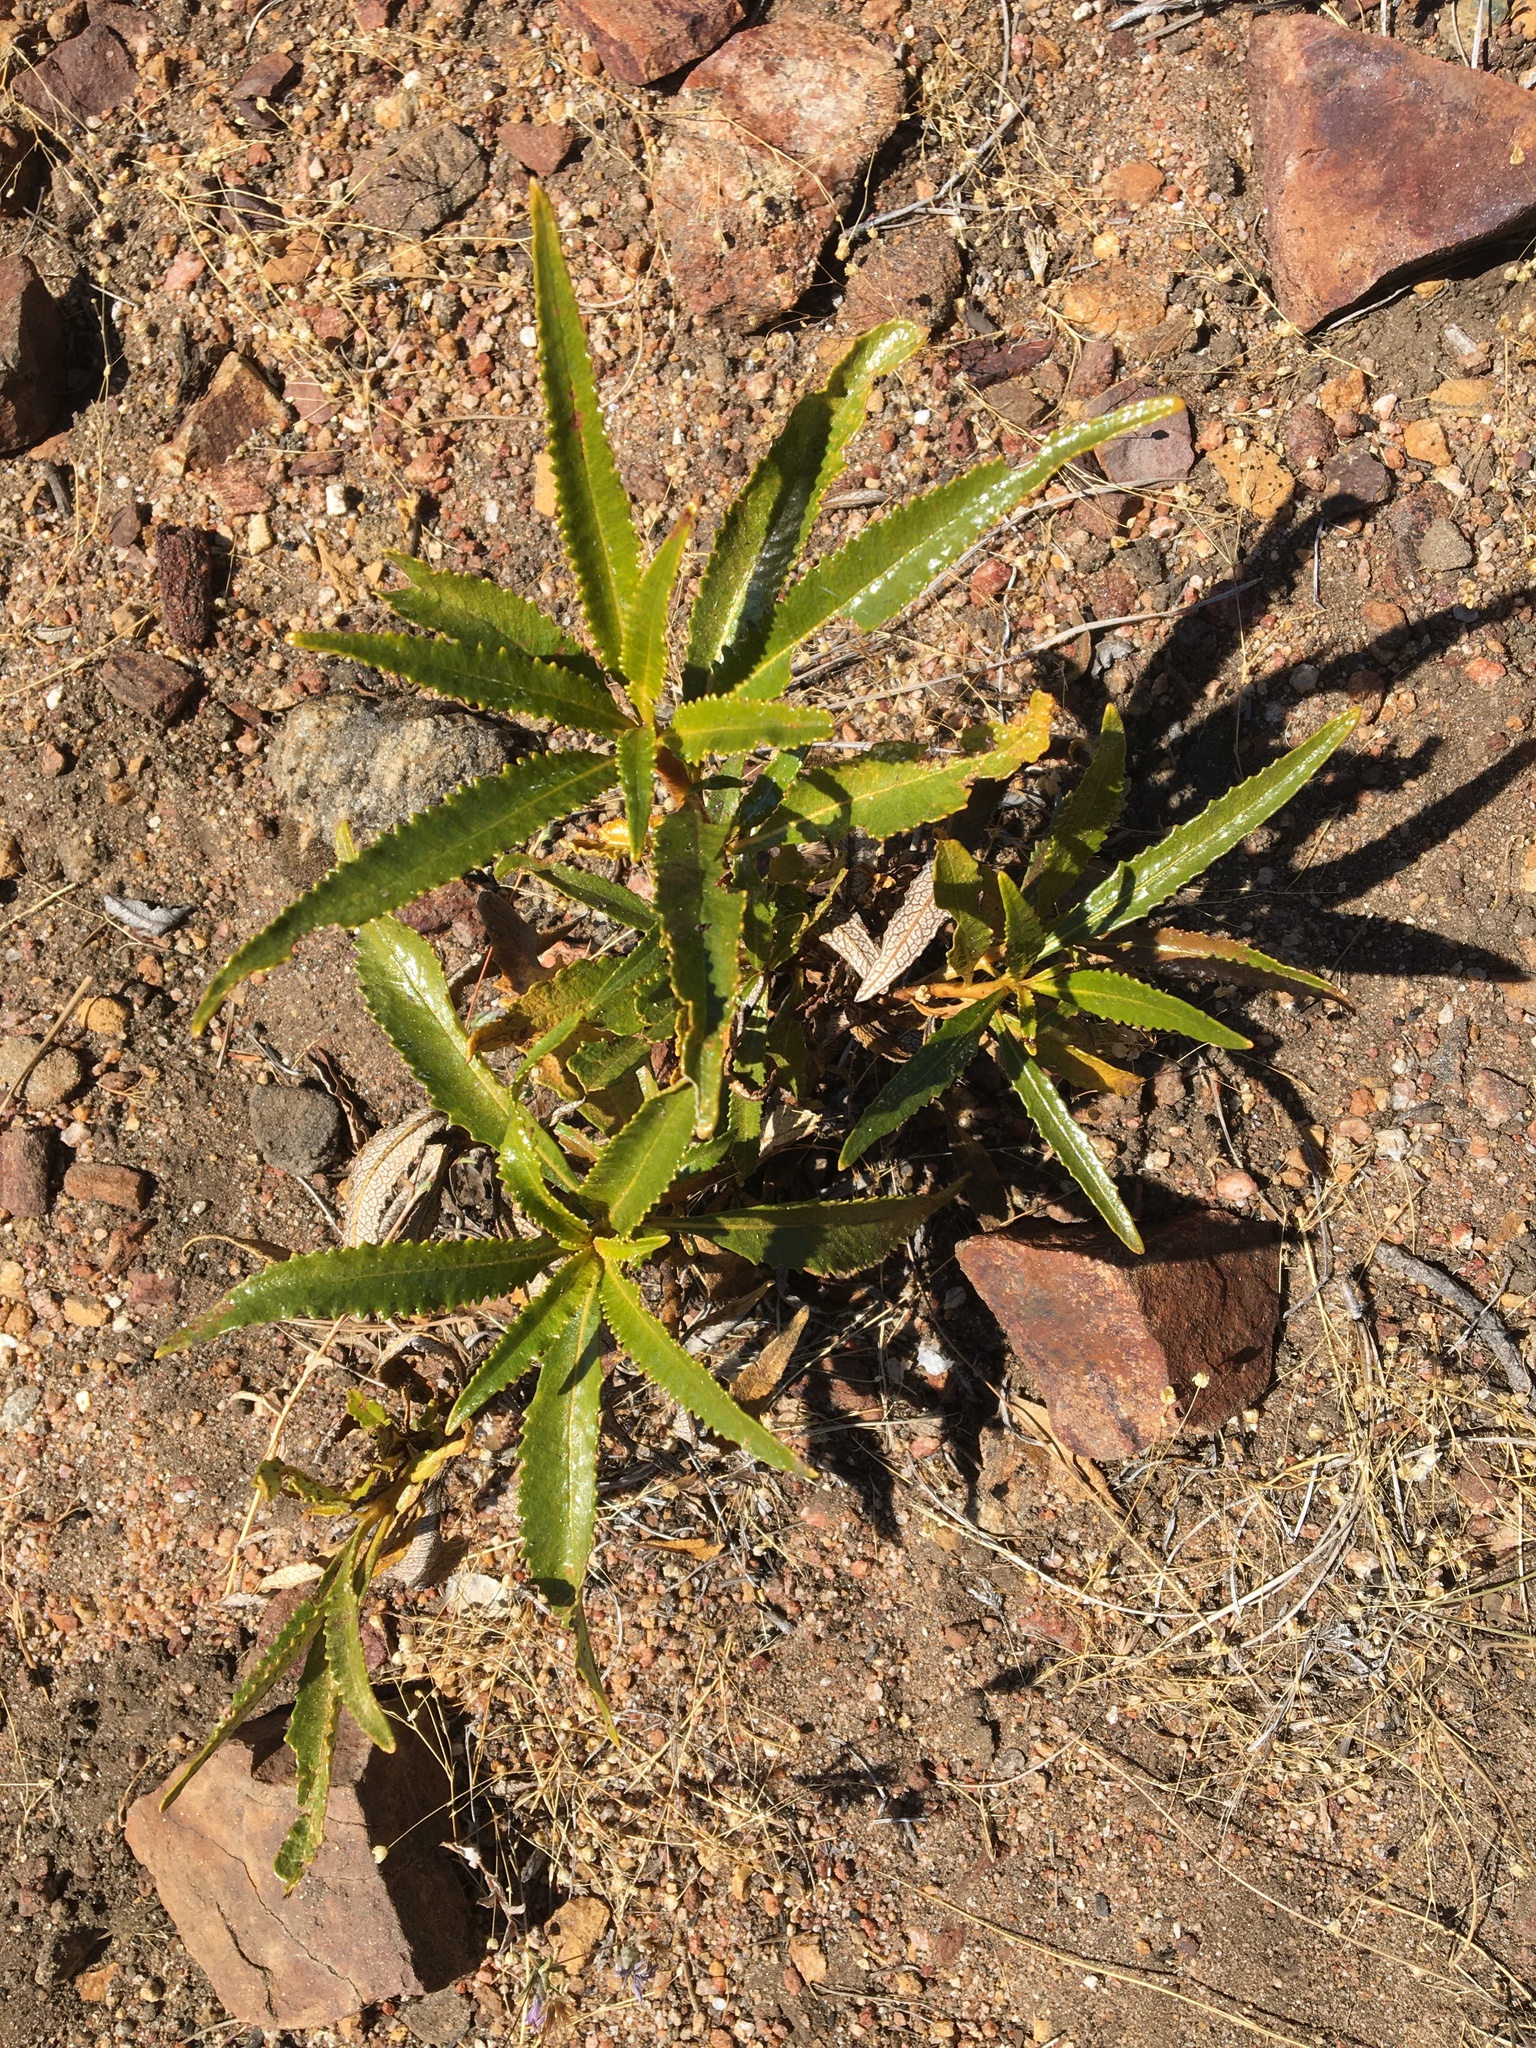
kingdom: Plantae
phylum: Tracheophyta
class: Magnoliopsida
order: Boraginales
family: Namaceae
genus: Eriodictyon
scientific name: Eriodictyon californicum
